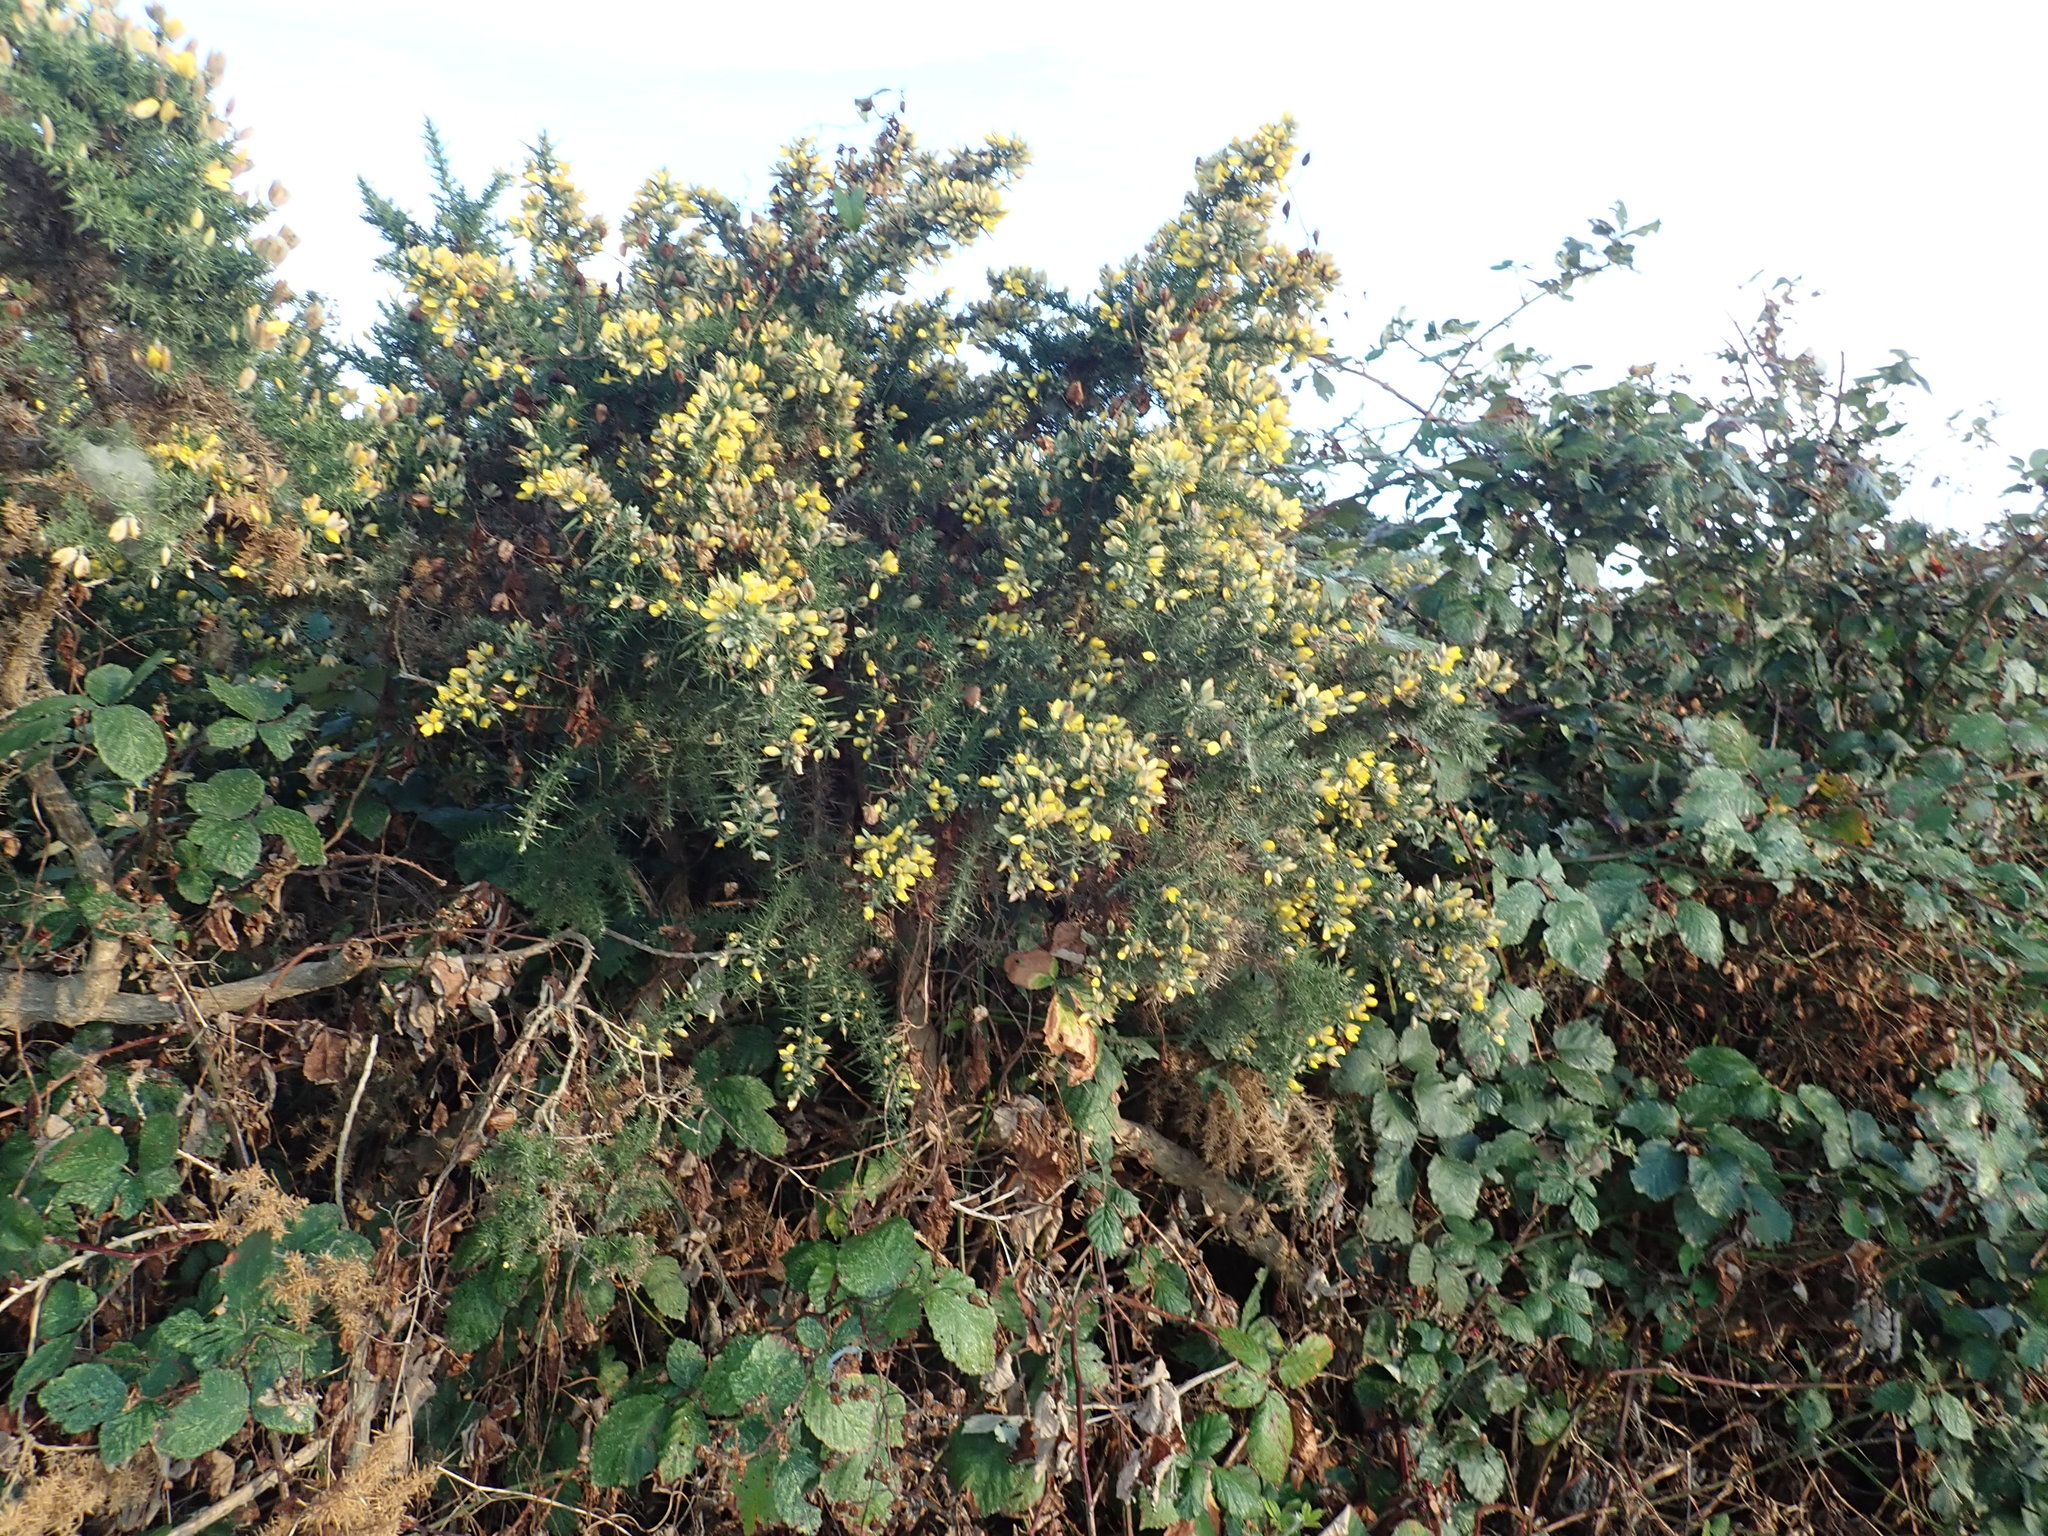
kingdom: Plantae
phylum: Tracheophyta
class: Magnoliopsida
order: Fabales
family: Fabaceae
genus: Ulex
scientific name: Ulex europaeus
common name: Common gorse
